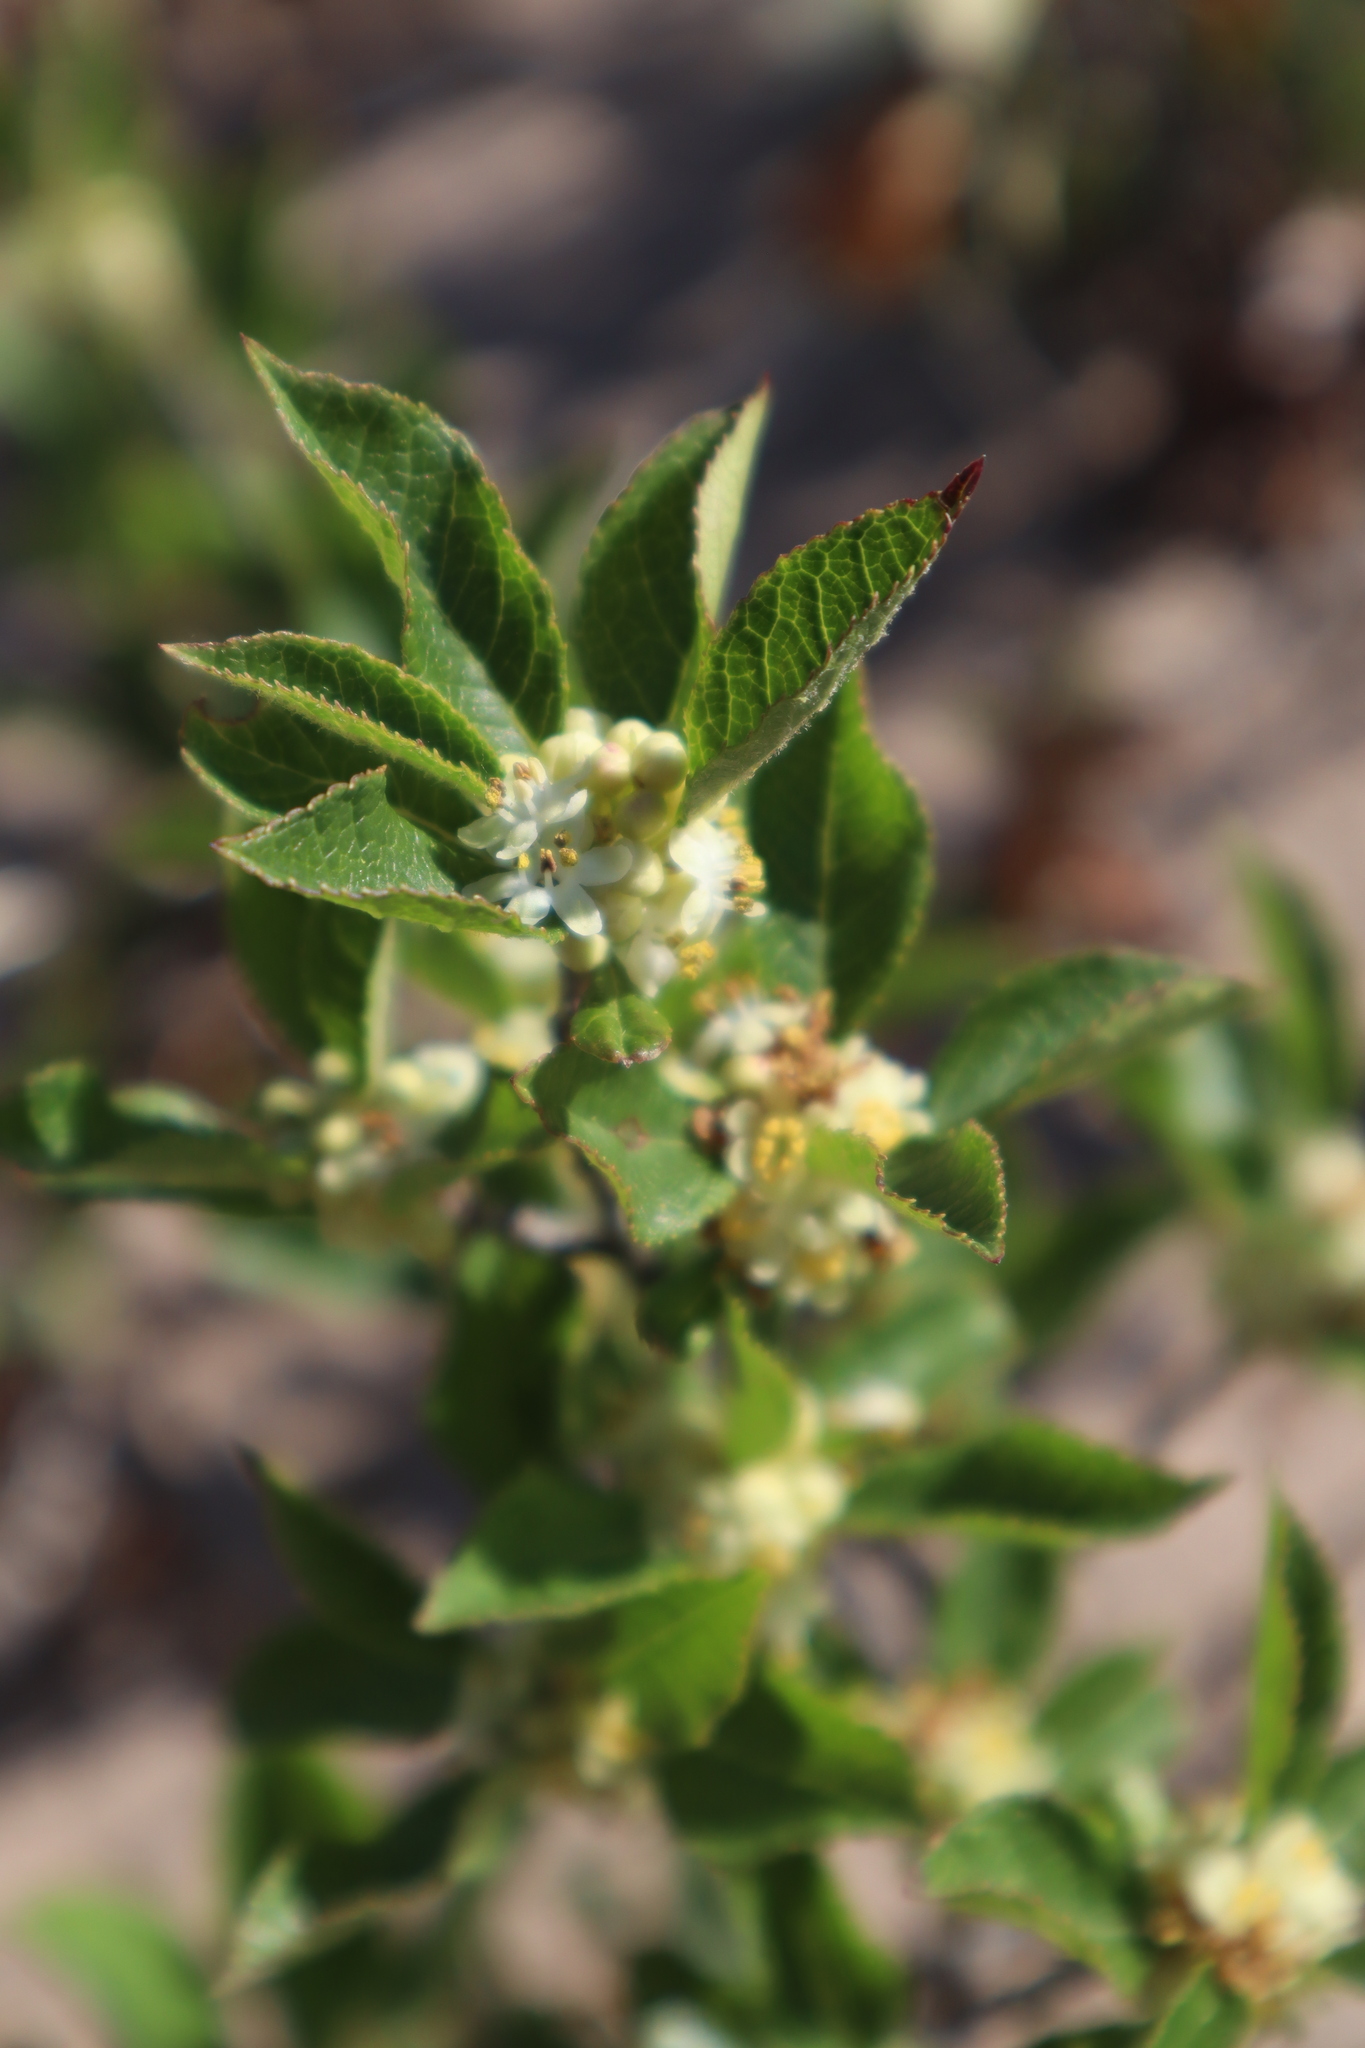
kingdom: Plantae
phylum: Tracheophyta
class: Magnoliopsida
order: Aquifoliales
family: Aquifoliaceae
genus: Ilex
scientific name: Ilex verticillata
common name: Virginia winterberry
